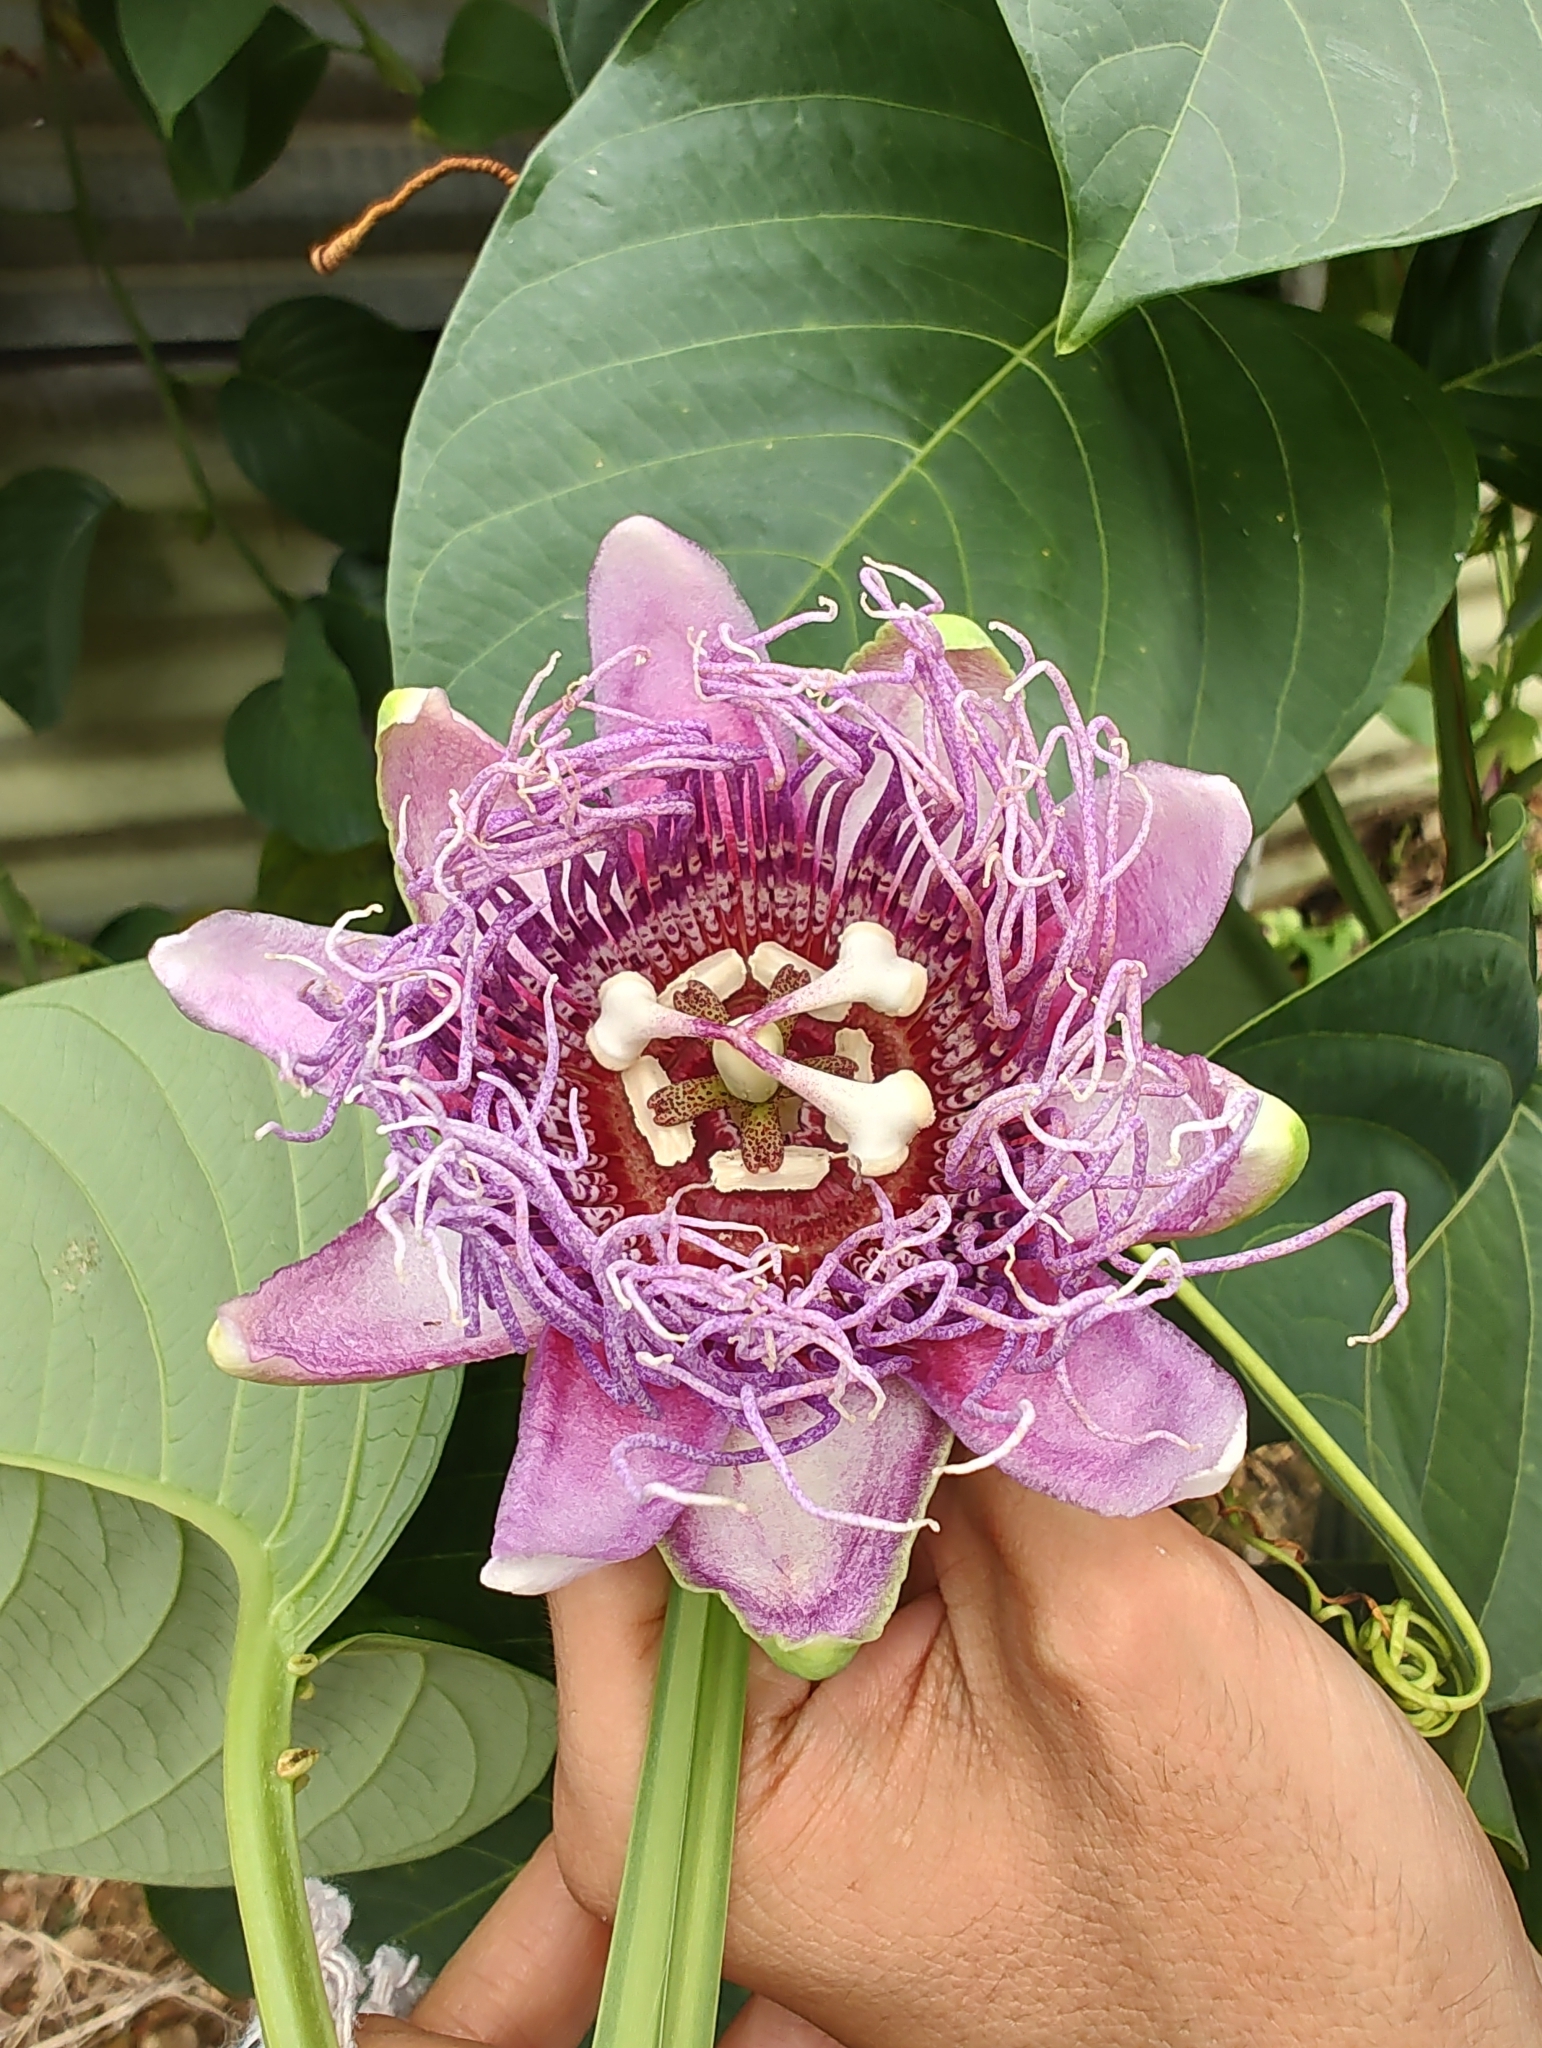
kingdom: Plantae
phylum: Tracheophyta
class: Magnoliopsida
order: Malpighiales
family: Passifloraceae
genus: Passiflora
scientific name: Passiflora quadrangularis
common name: Giant granadilla
